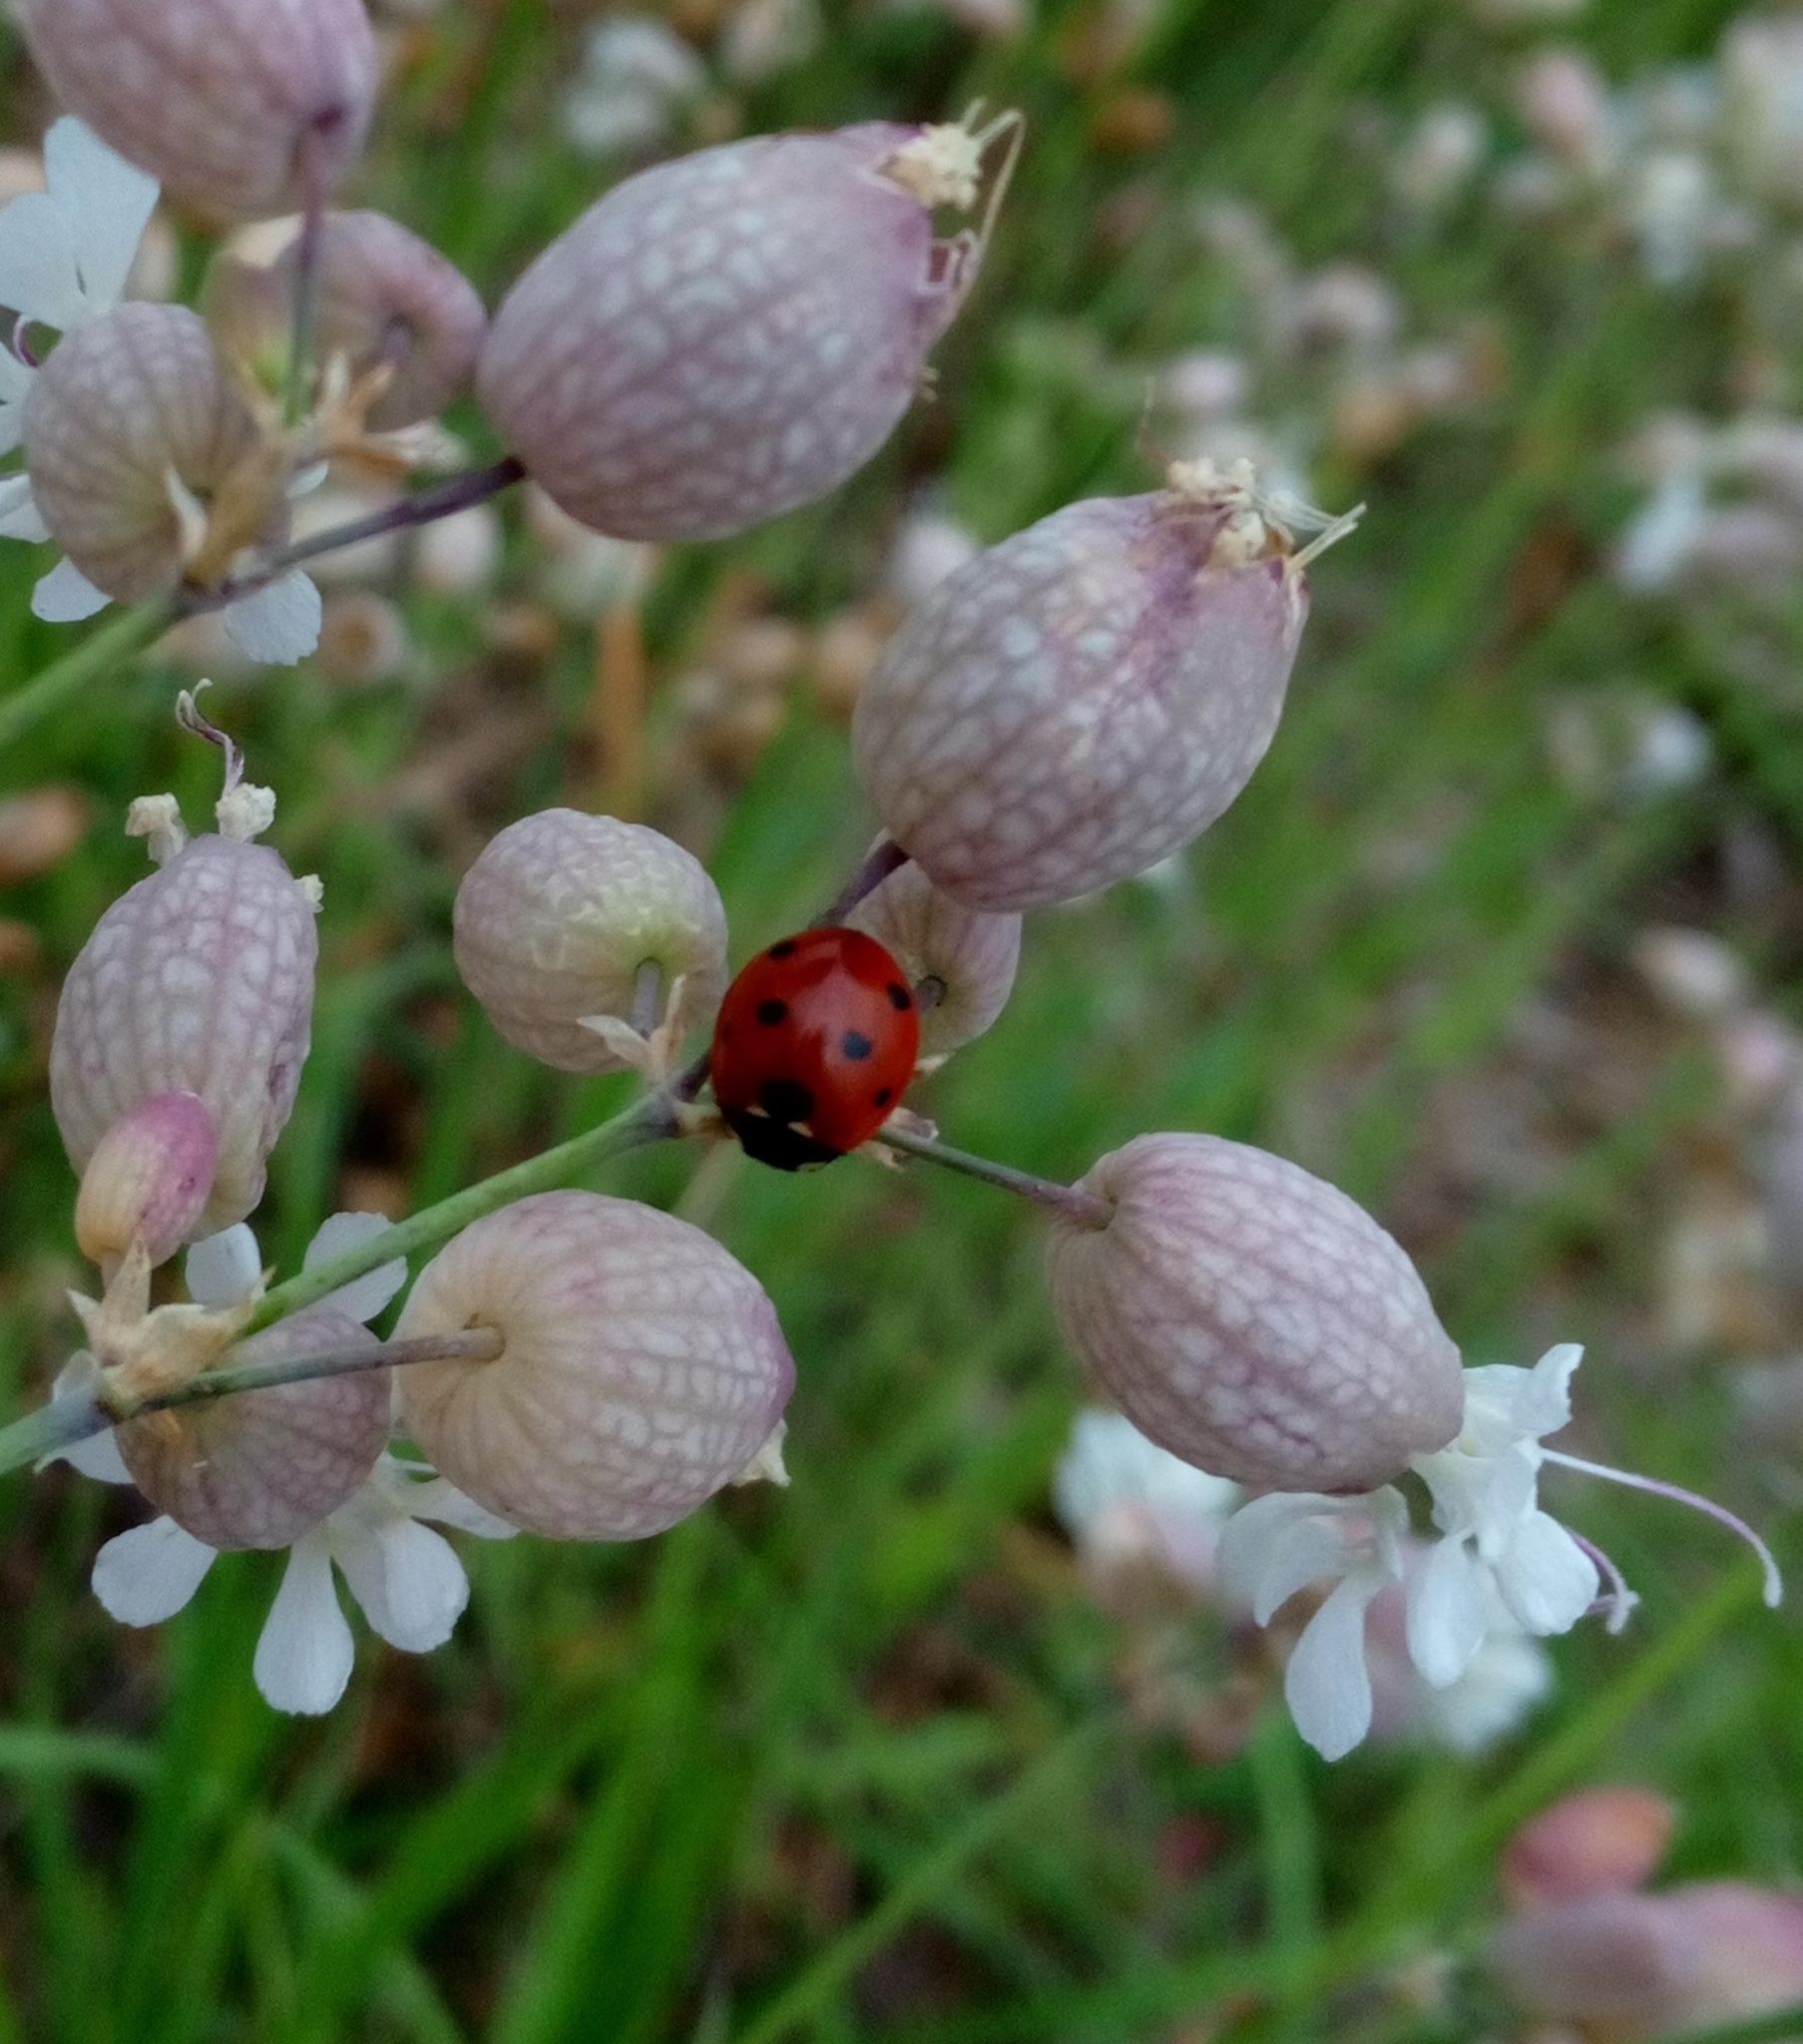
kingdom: Animalia
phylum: Arthropoda
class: Insecta
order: Coleoptera
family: Coccinellidae
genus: Coccinella
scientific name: Coccinella septempunctata
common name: Sevenspotted lady beetle
